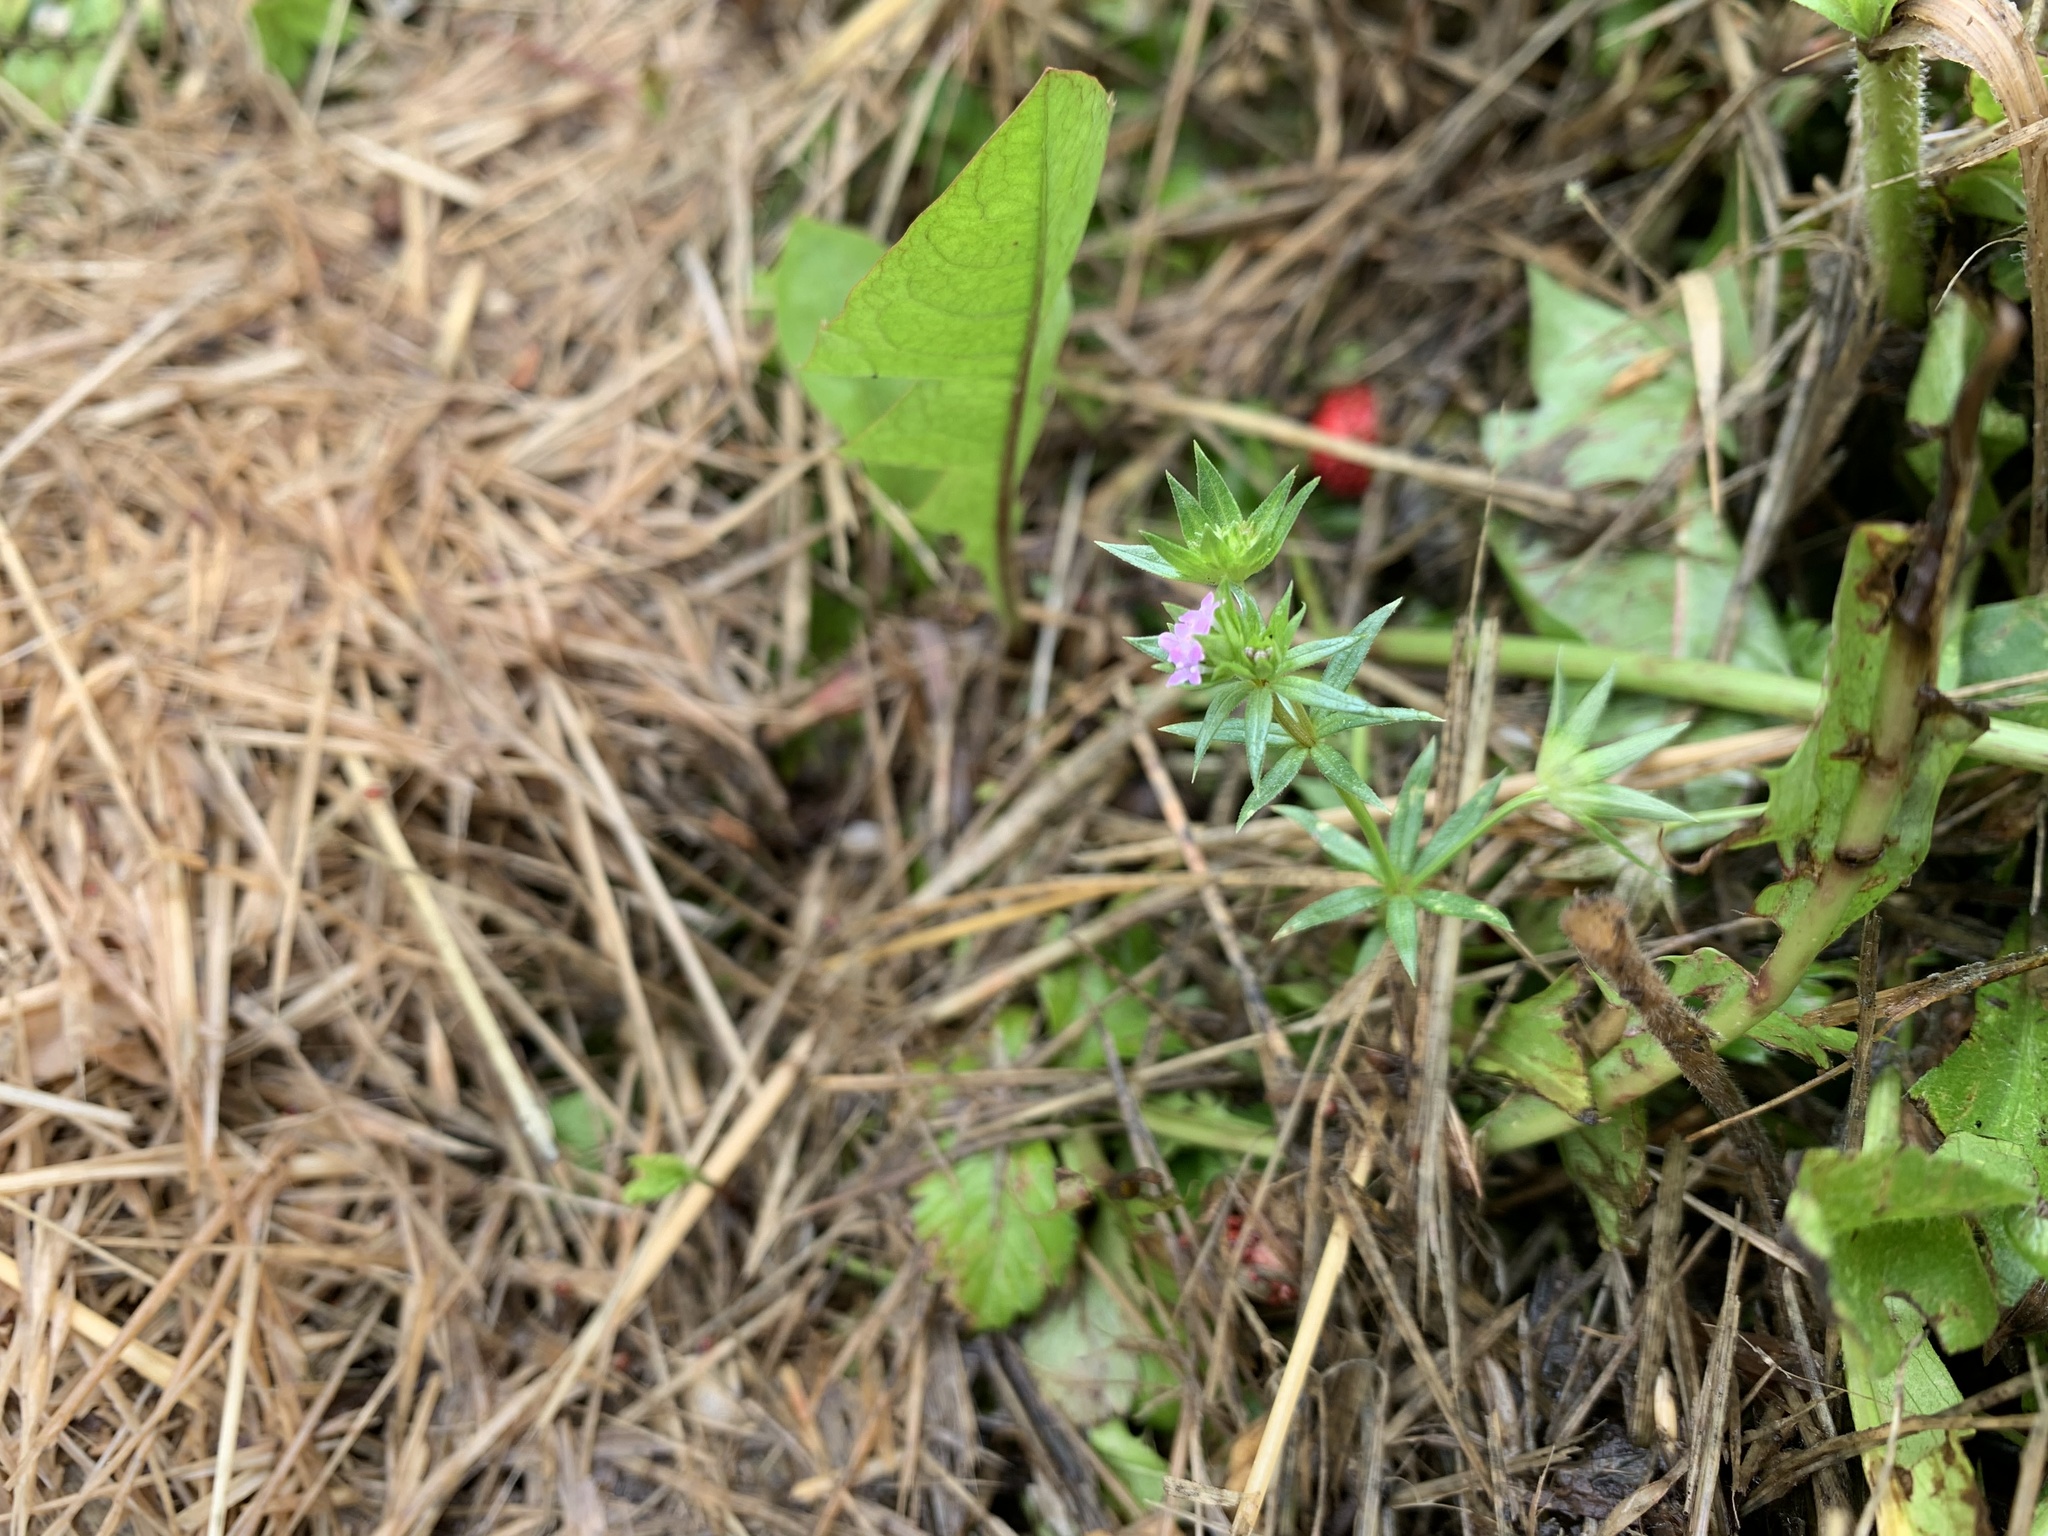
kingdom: Plantae
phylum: Tracheophyta
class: Magnoliopsida
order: Gentianales
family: Rubiaceae
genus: Sherardia
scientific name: Sherardia arvensis
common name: Field madder
